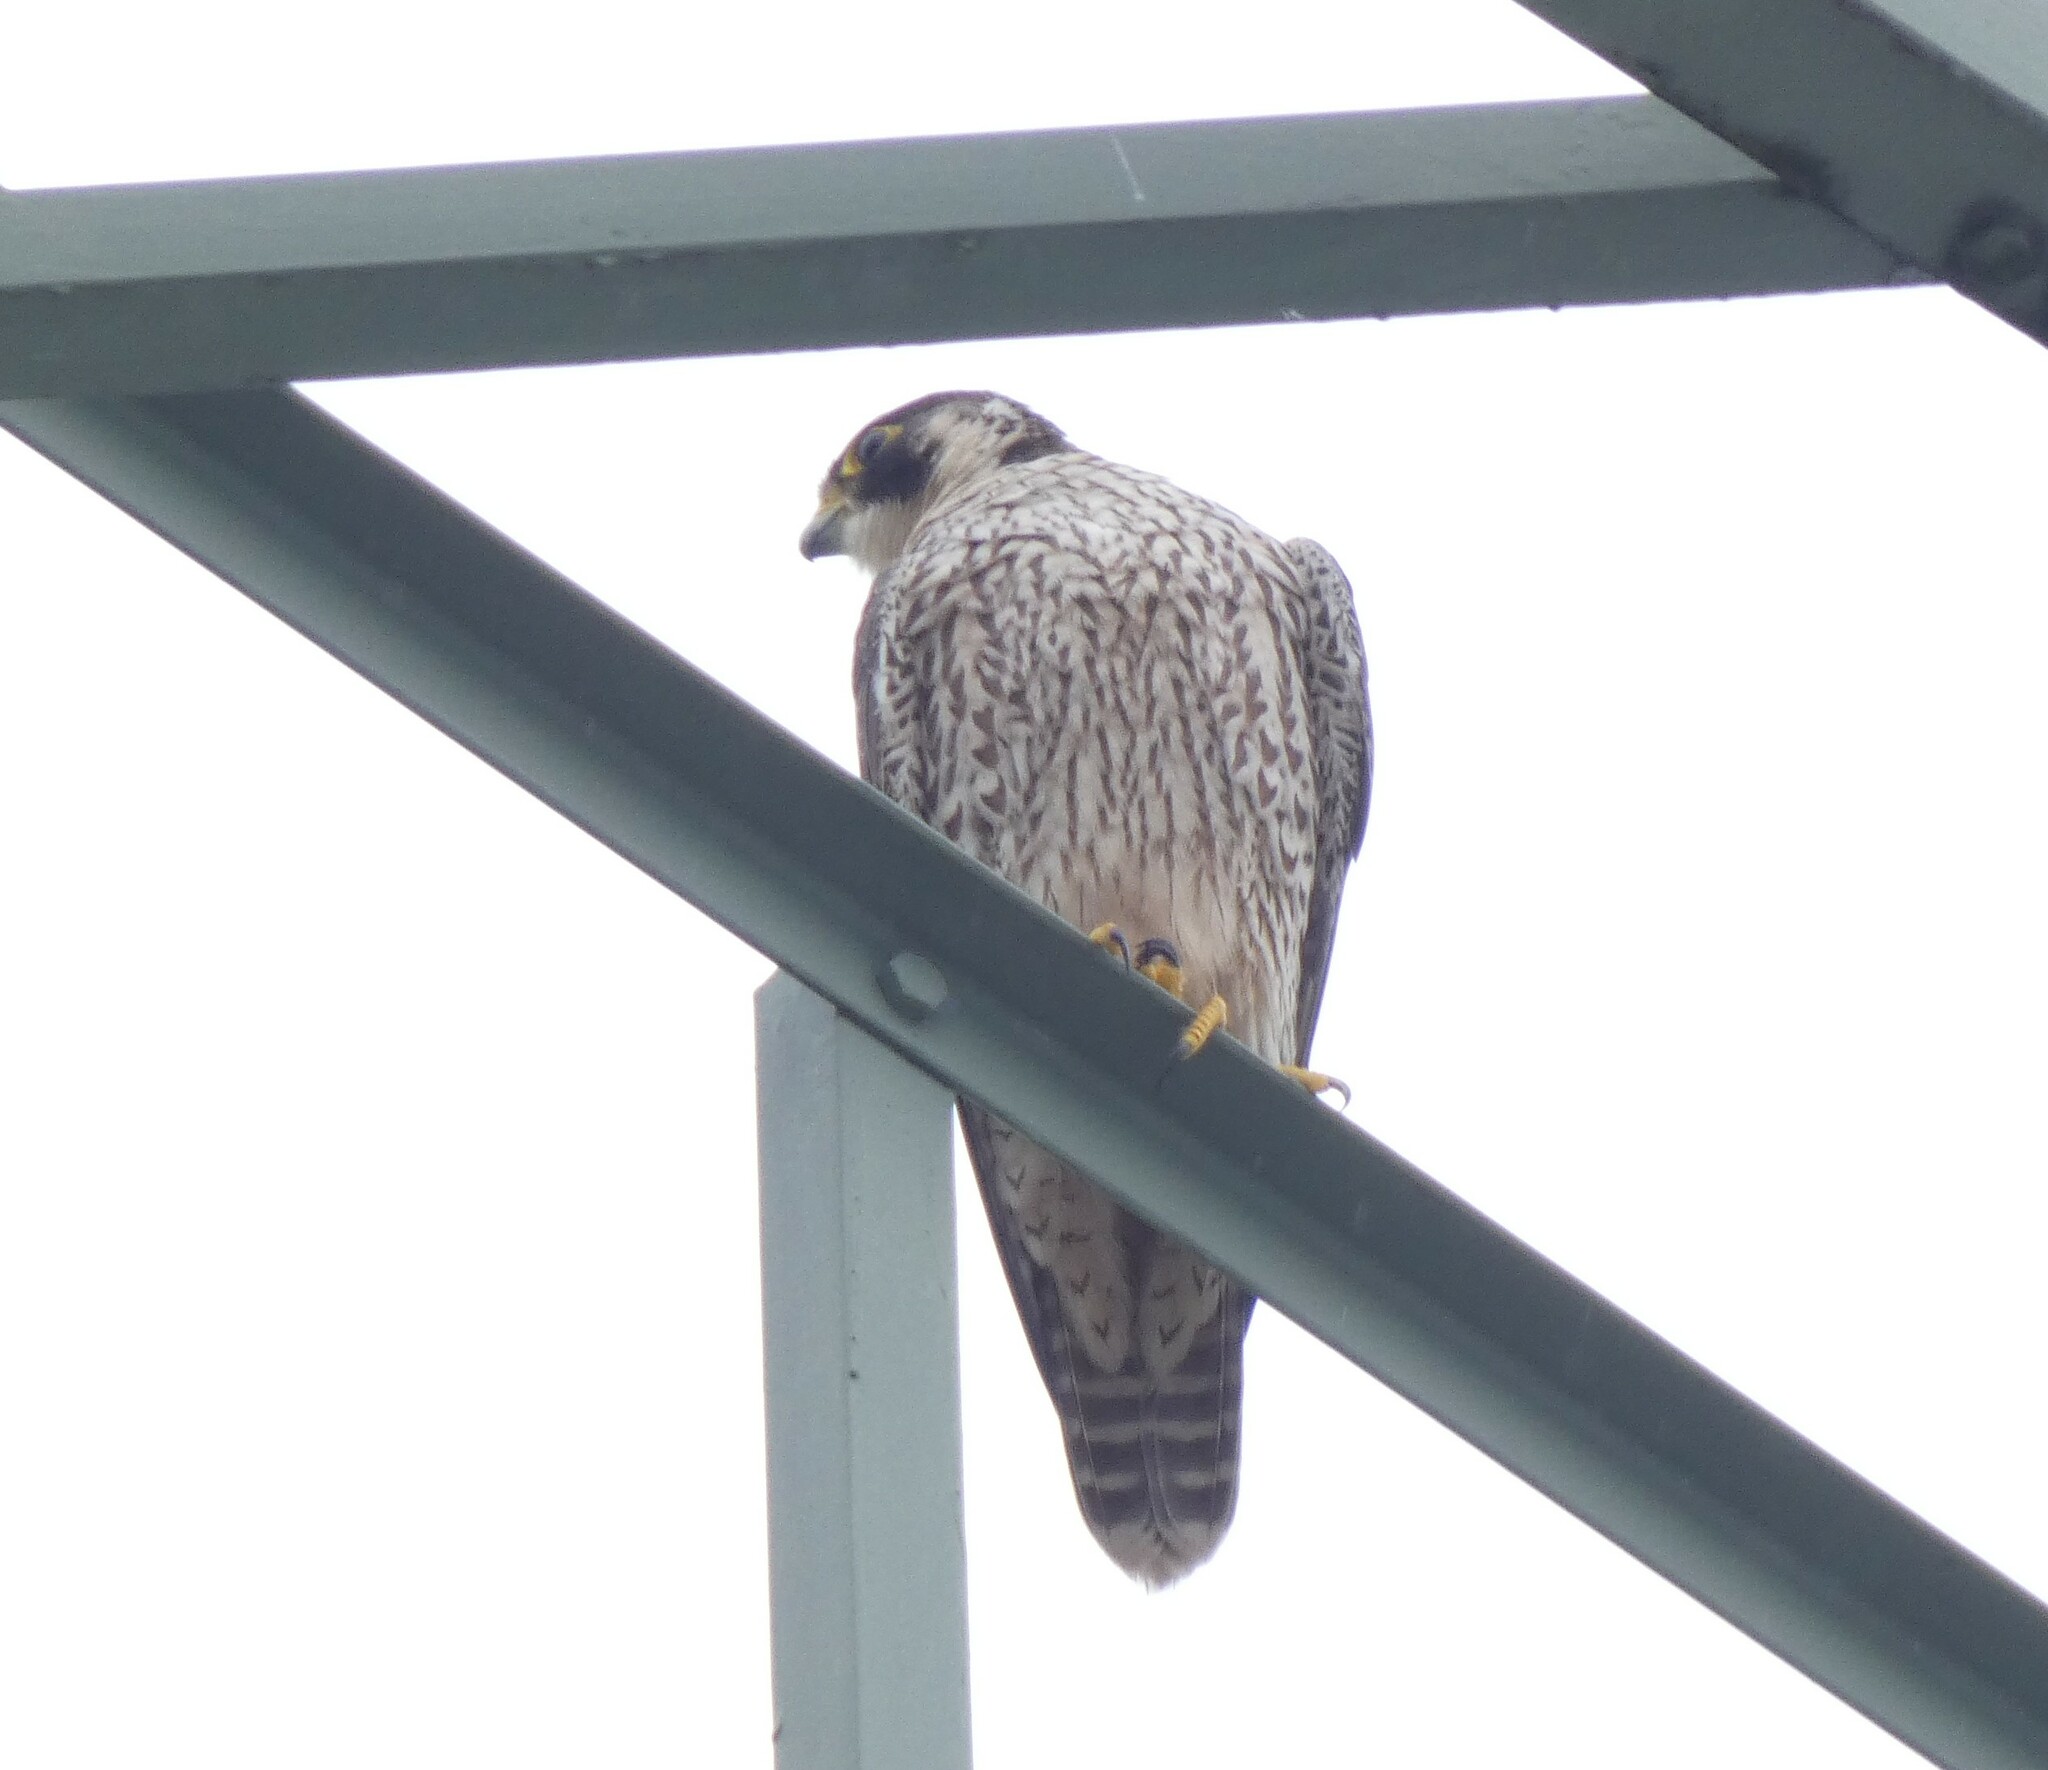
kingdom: Animalia
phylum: Chordata
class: Aves
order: Falconiformes
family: Falconidae
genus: Falco
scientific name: Falco peregrinus
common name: Peregrine falcon
